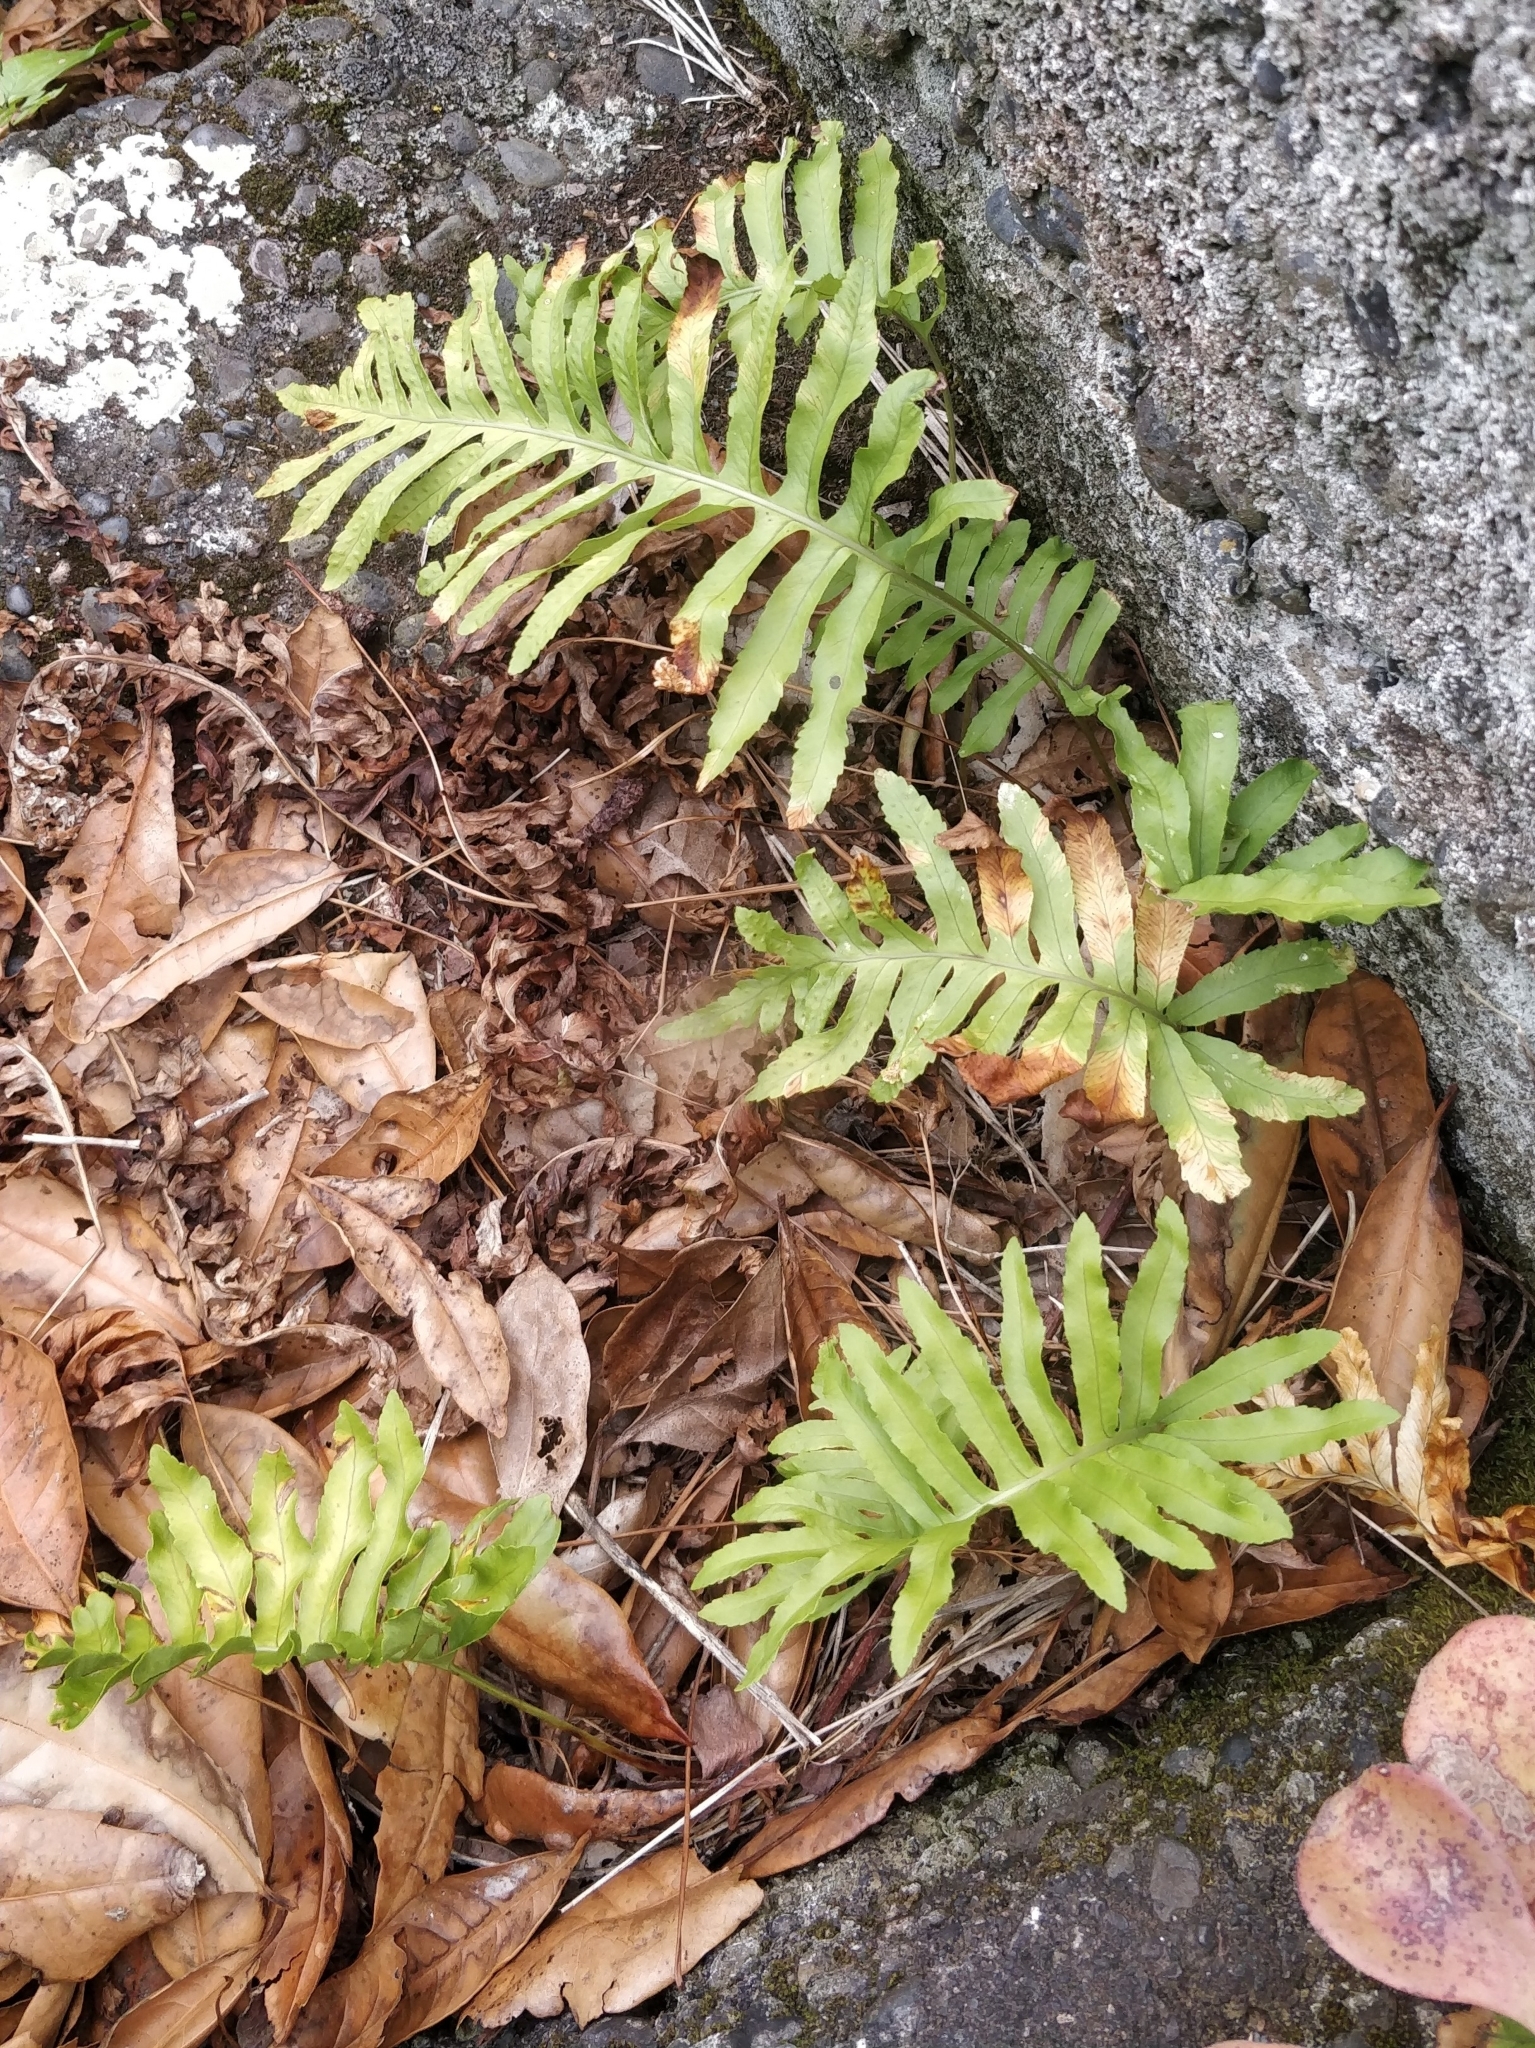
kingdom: Plantae
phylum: Tracheophyta
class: Polypodiopsida
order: Polypodiales
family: Polypodiaceae
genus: Polypodium
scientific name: Polypodium macaronesicum
